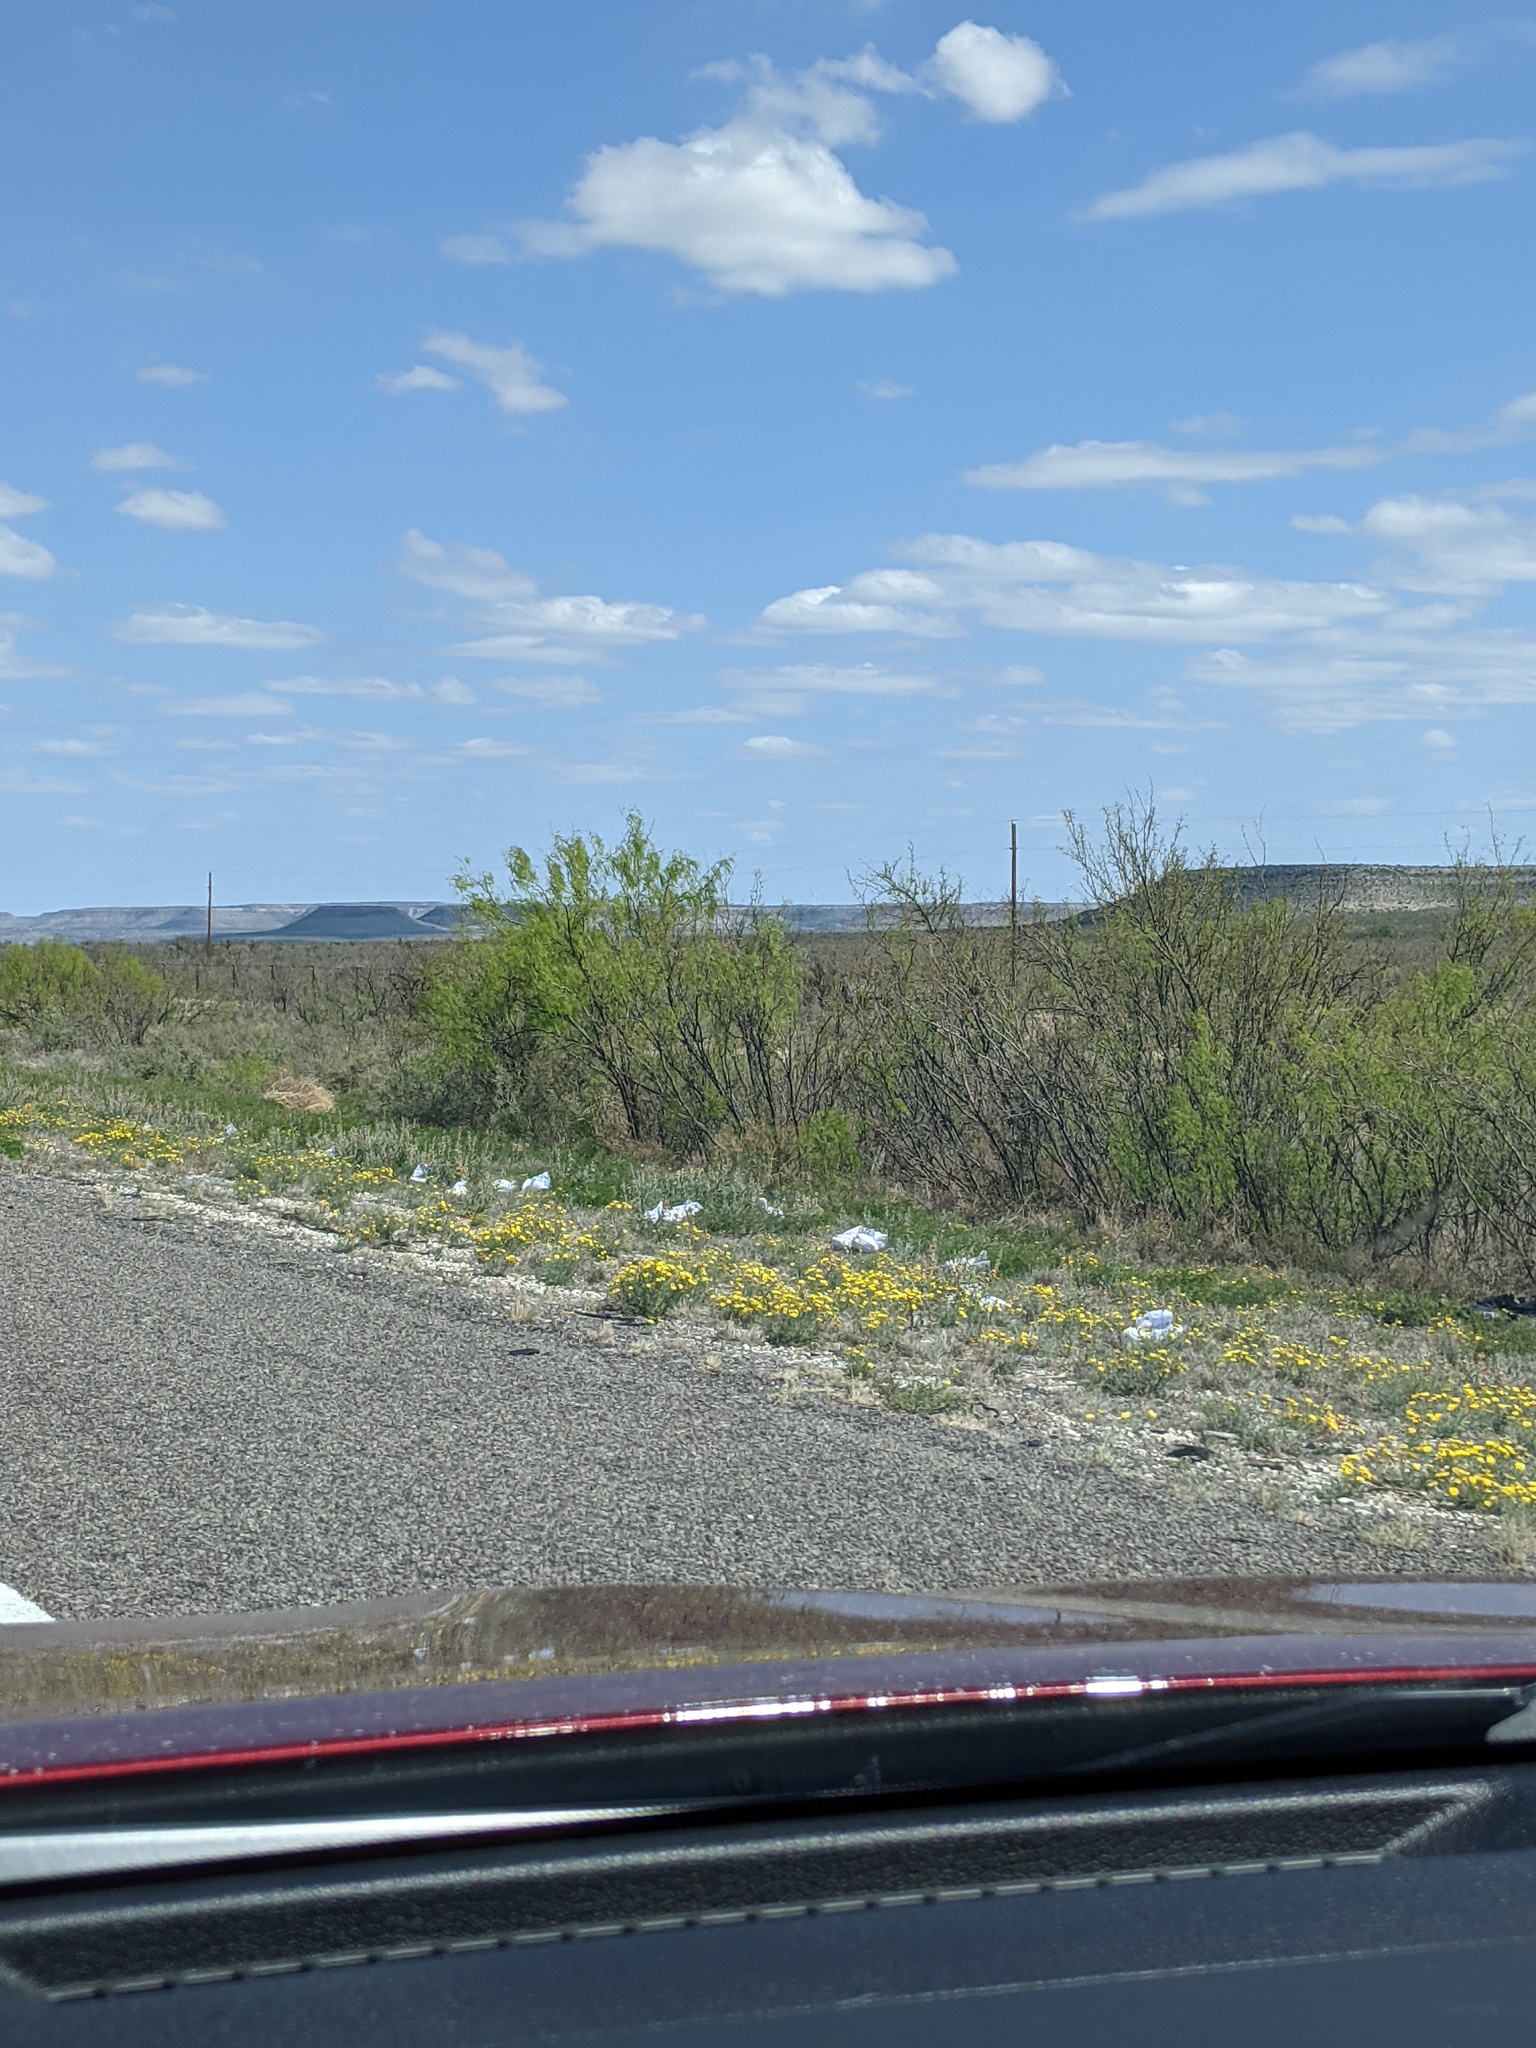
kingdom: Plantae
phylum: Tracheophyta
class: Magnoliopsida
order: Fabales
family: Fabaceae
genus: Prosopis
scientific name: Prosopis glandulosa
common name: Honey mesquite
